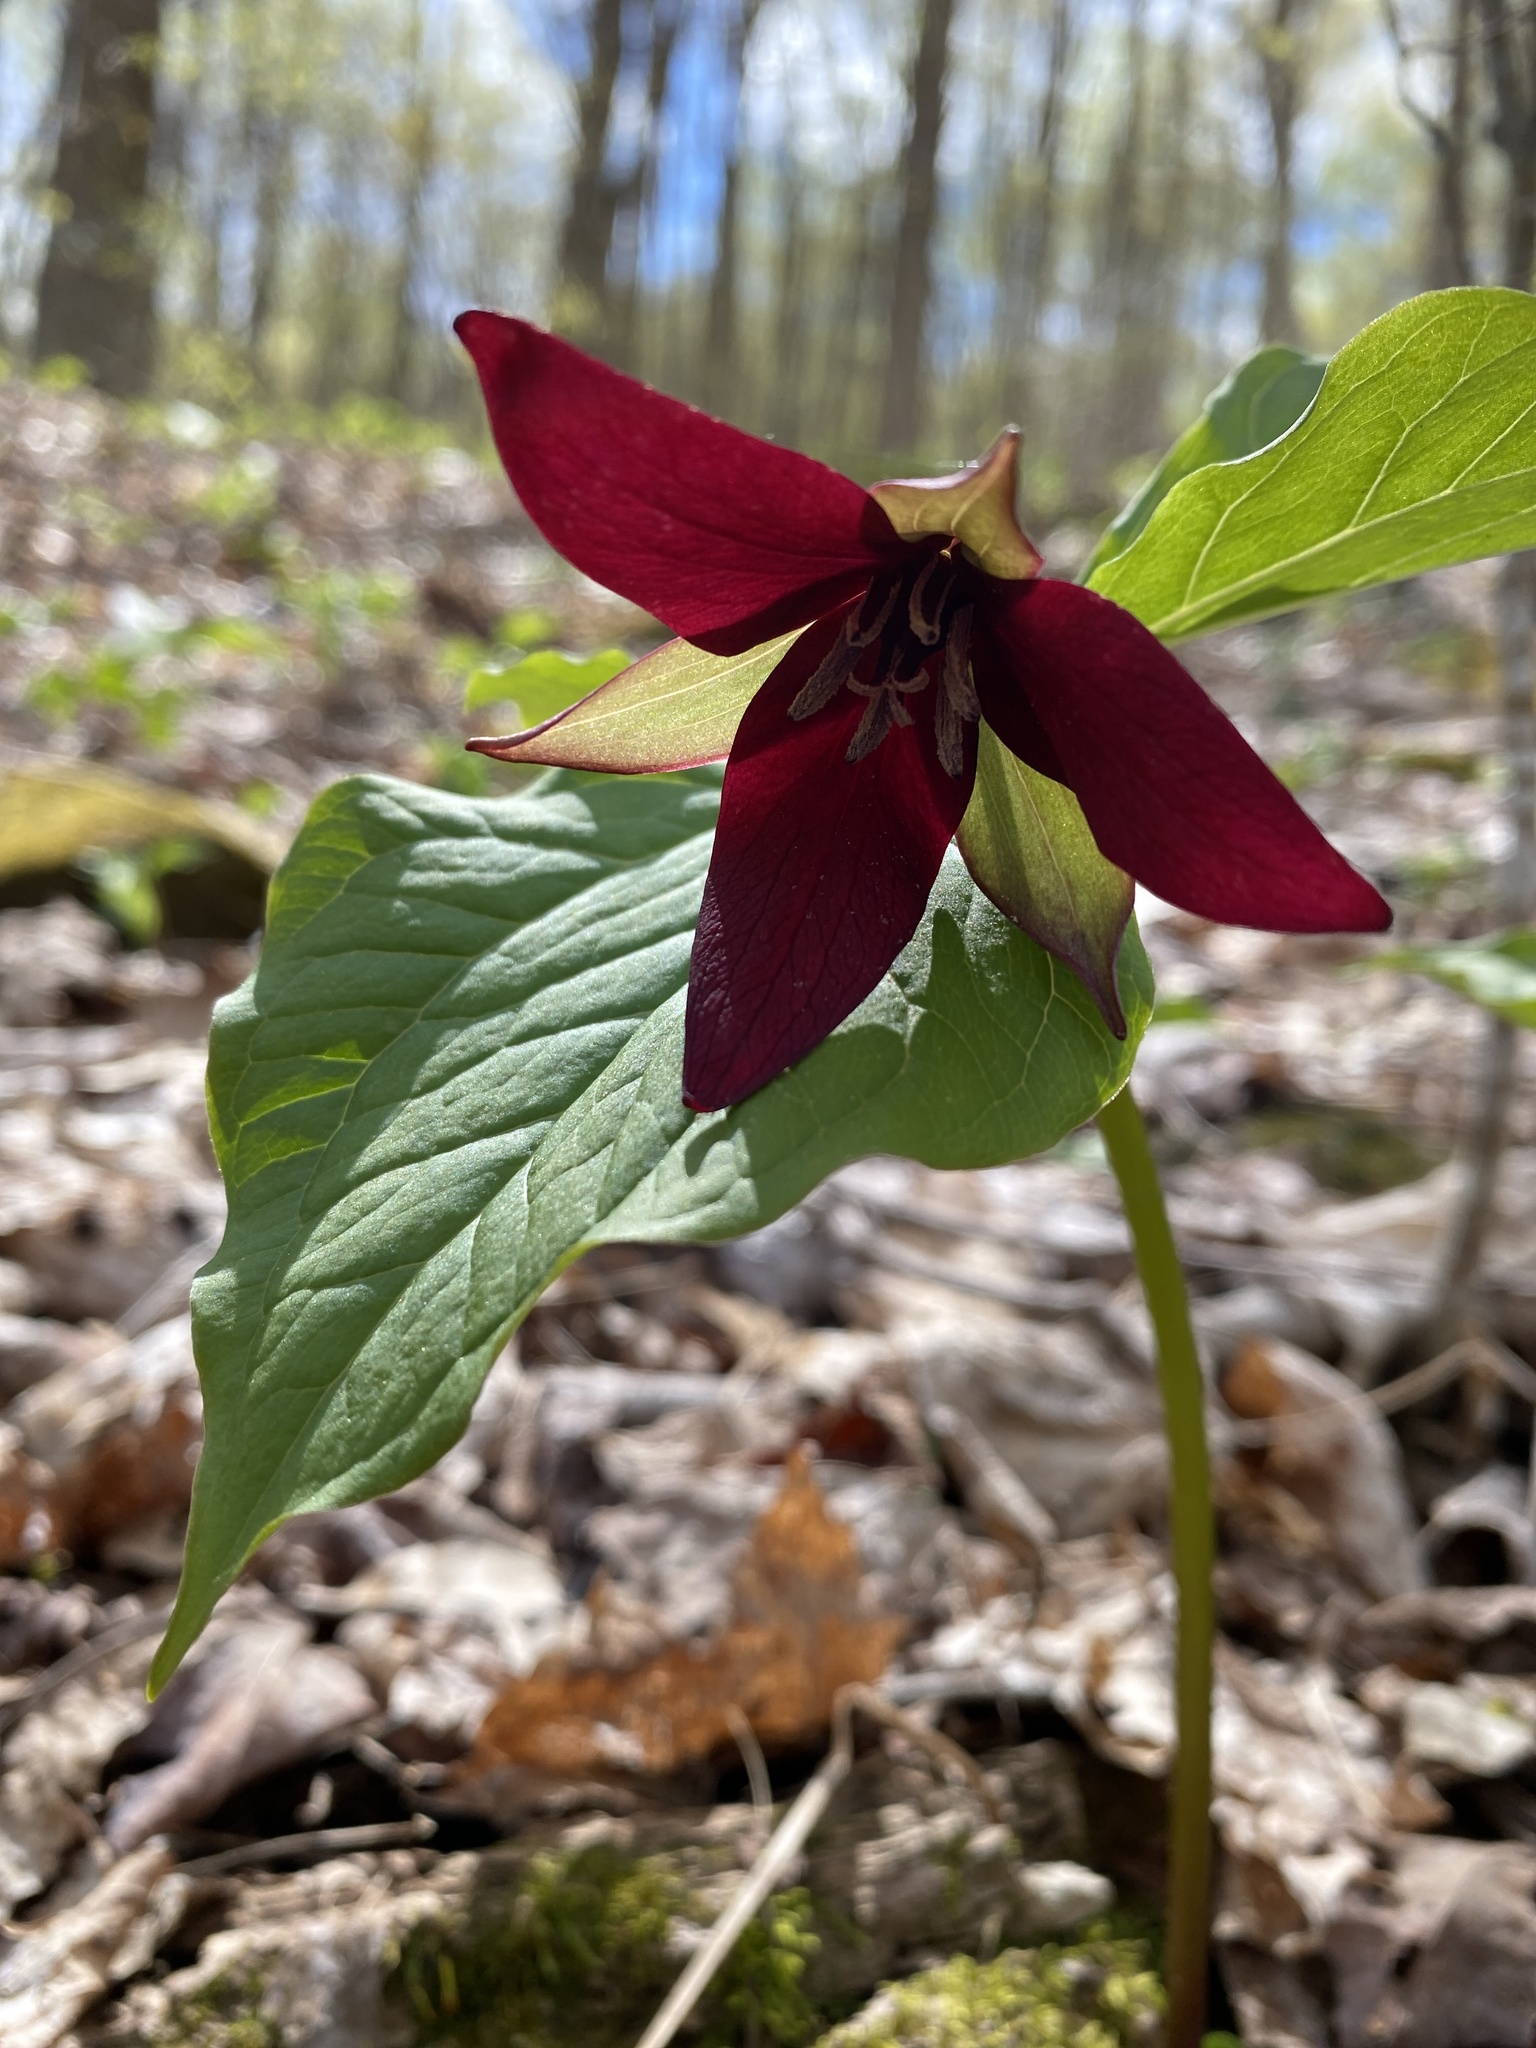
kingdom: Plantae
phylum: Tracheophyta
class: Liliopsida
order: Liliales
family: Melanthiaceae
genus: Trillium
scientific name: Trillium erectum
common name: Purple trillium
